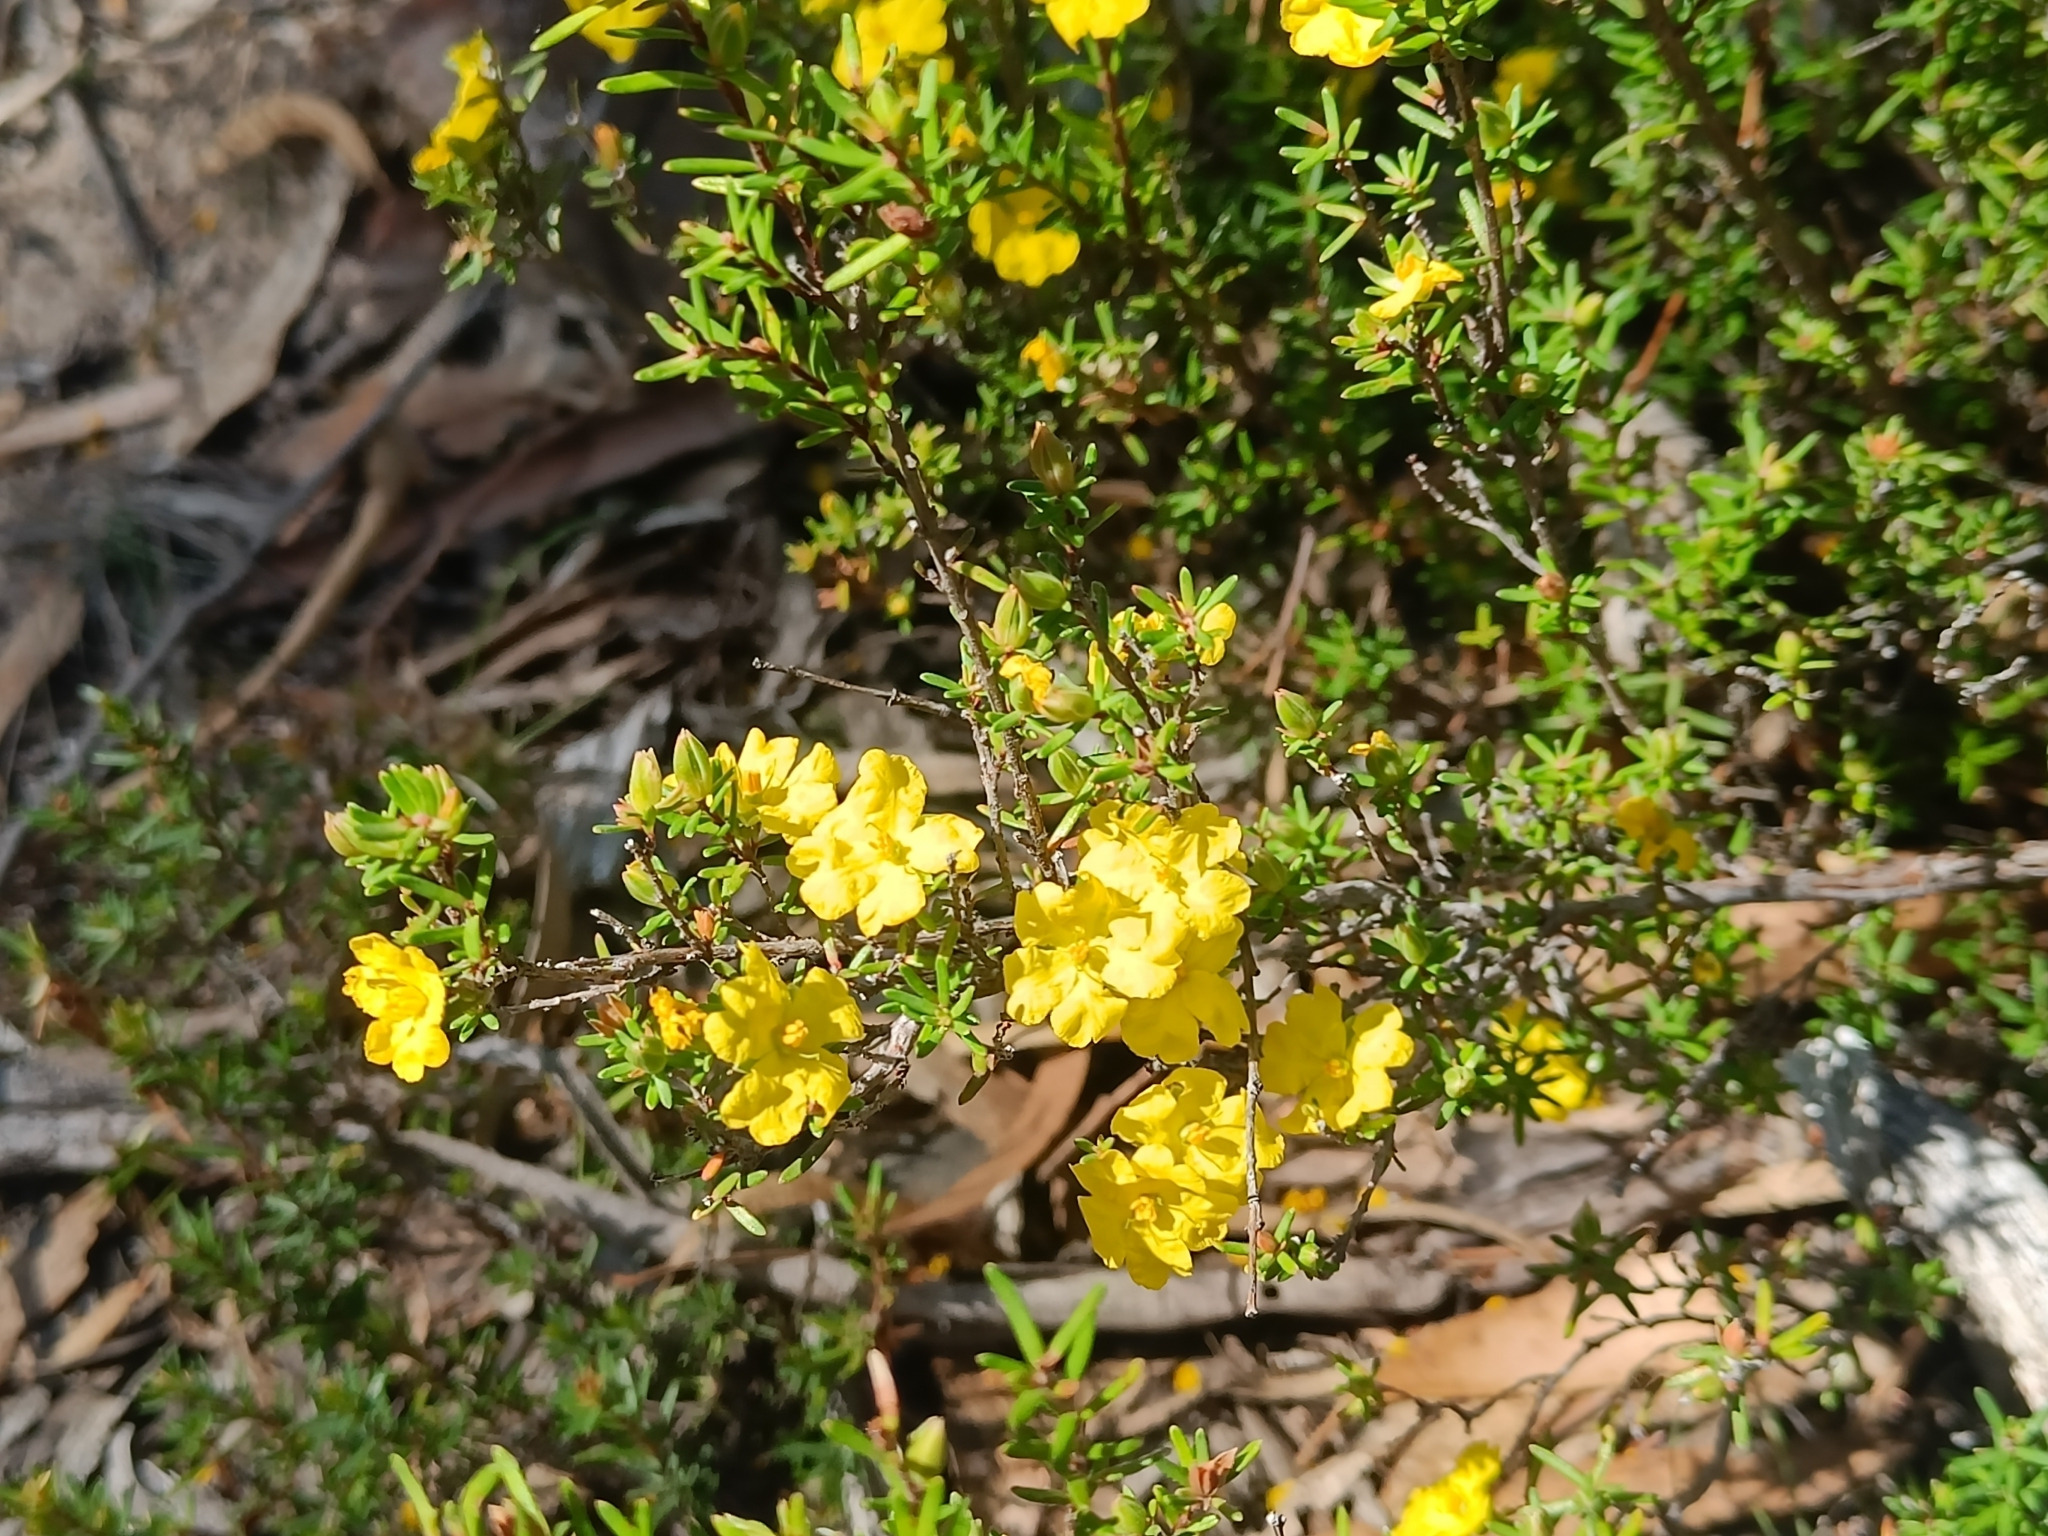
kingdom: Plantae
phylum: Tracheophyta
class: Magnoliopsida
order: Dilleniales
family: Dilleniaceae
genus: Hibbertia
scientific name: Hibbertia riparia
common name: Erect guinea-flower
